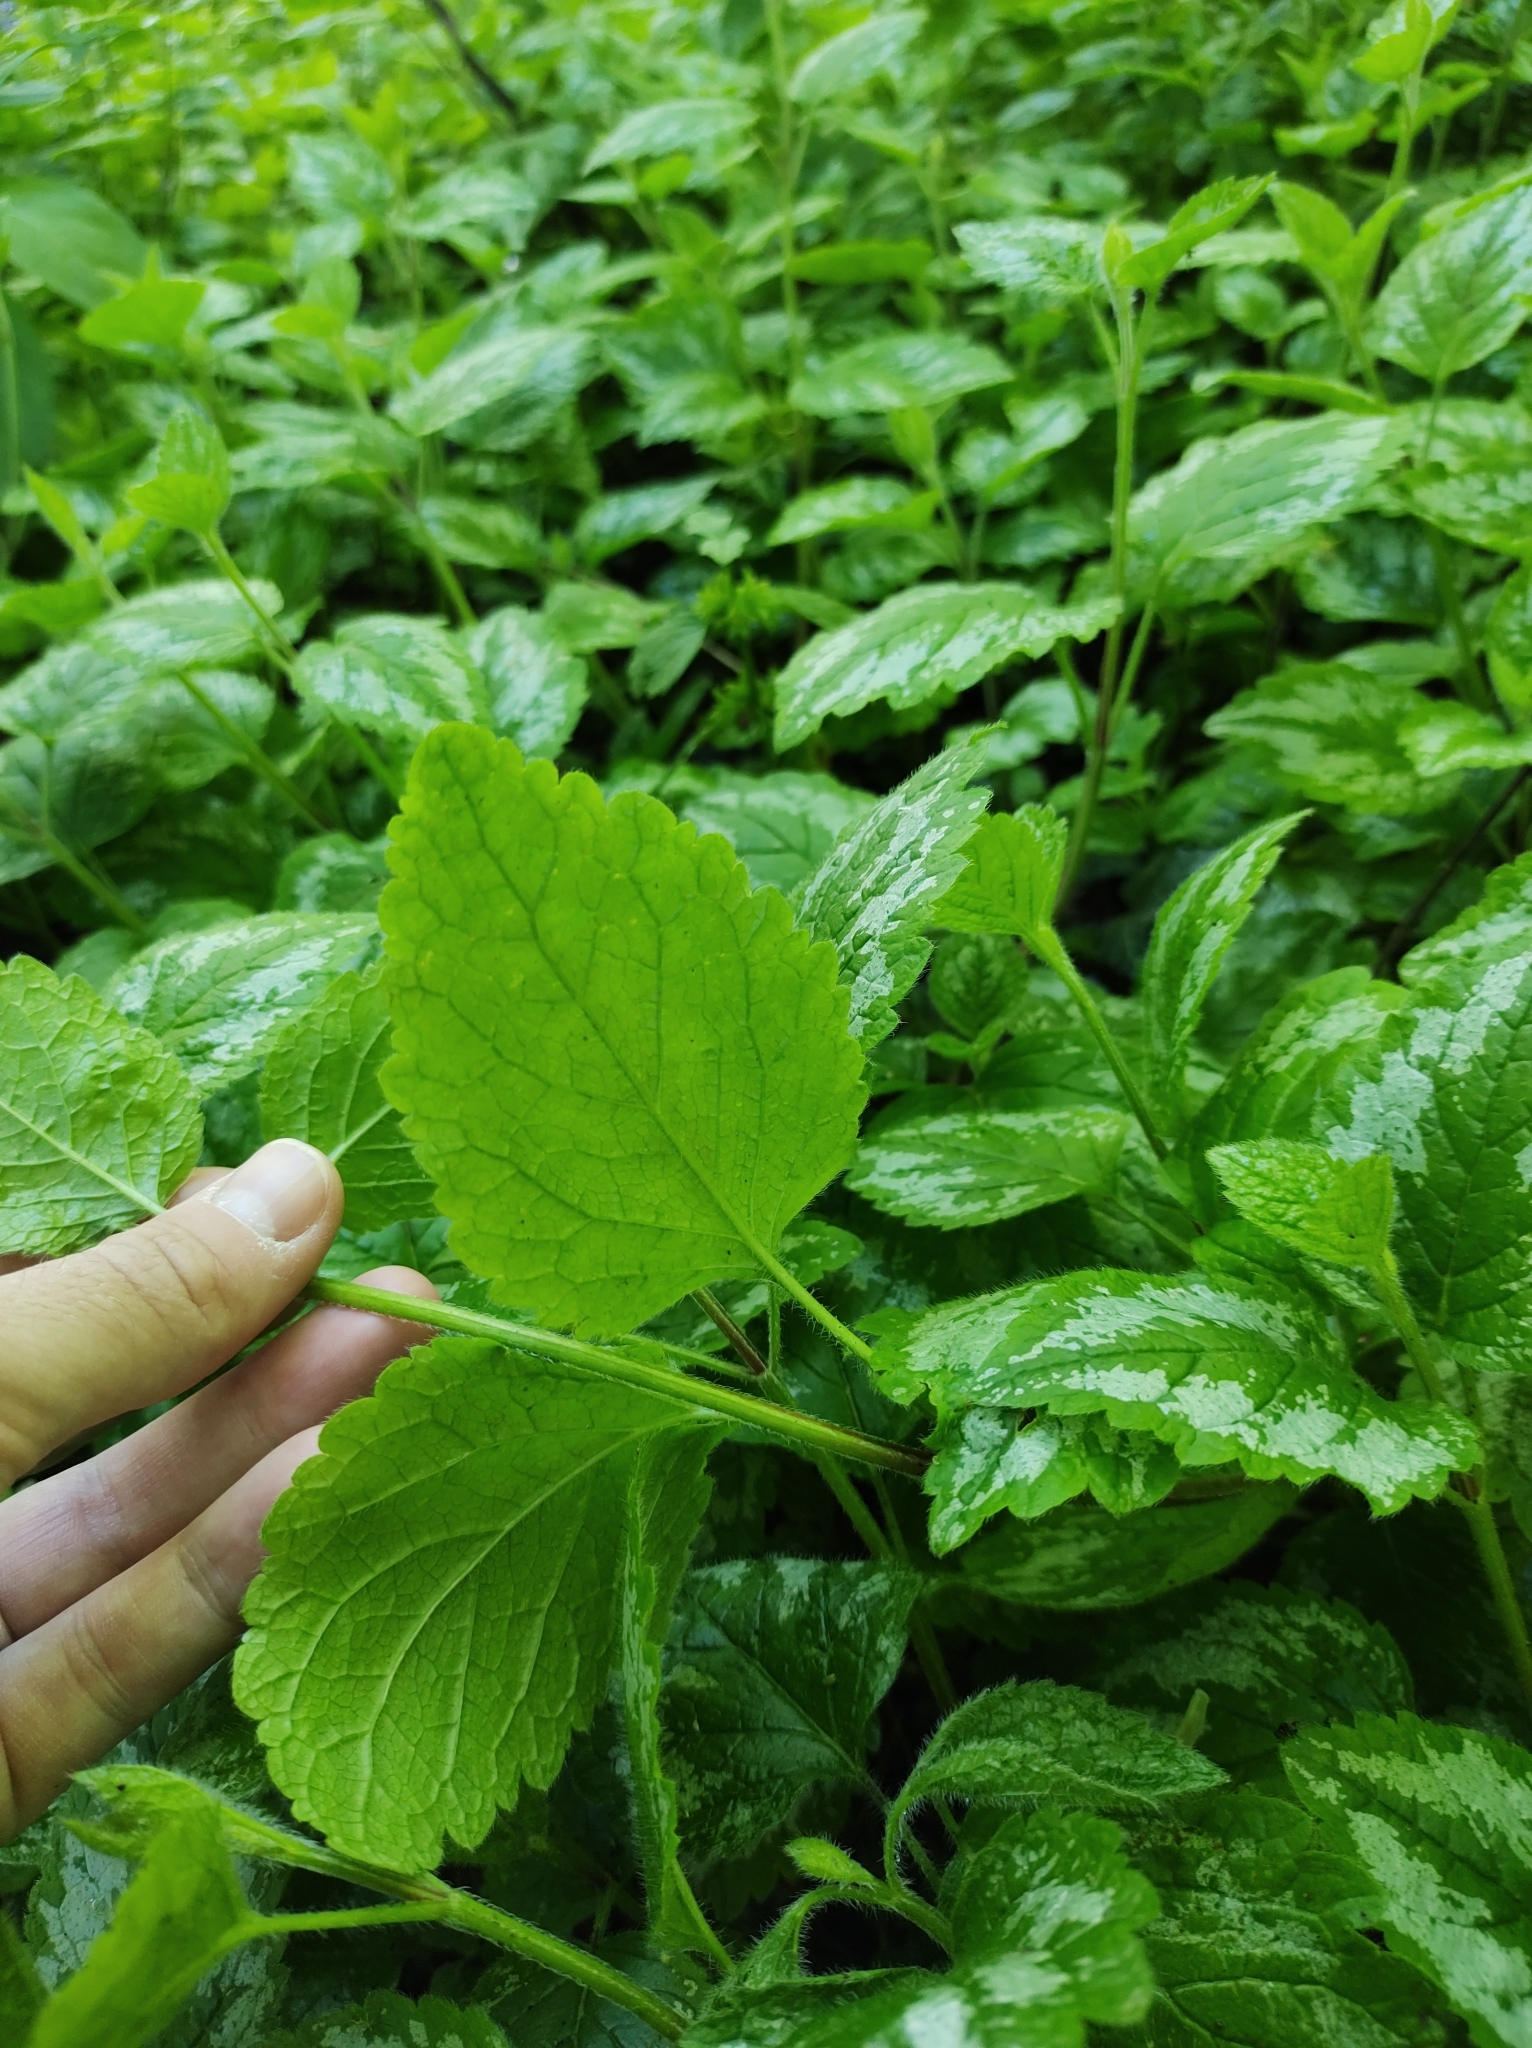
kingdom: Plantae
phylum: Tracheophyta
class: Magnoliopsida
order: Lamiales
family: Lamiaceae
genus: Lamium
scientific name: Lamium galeobdolon
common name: Yellow archangel
